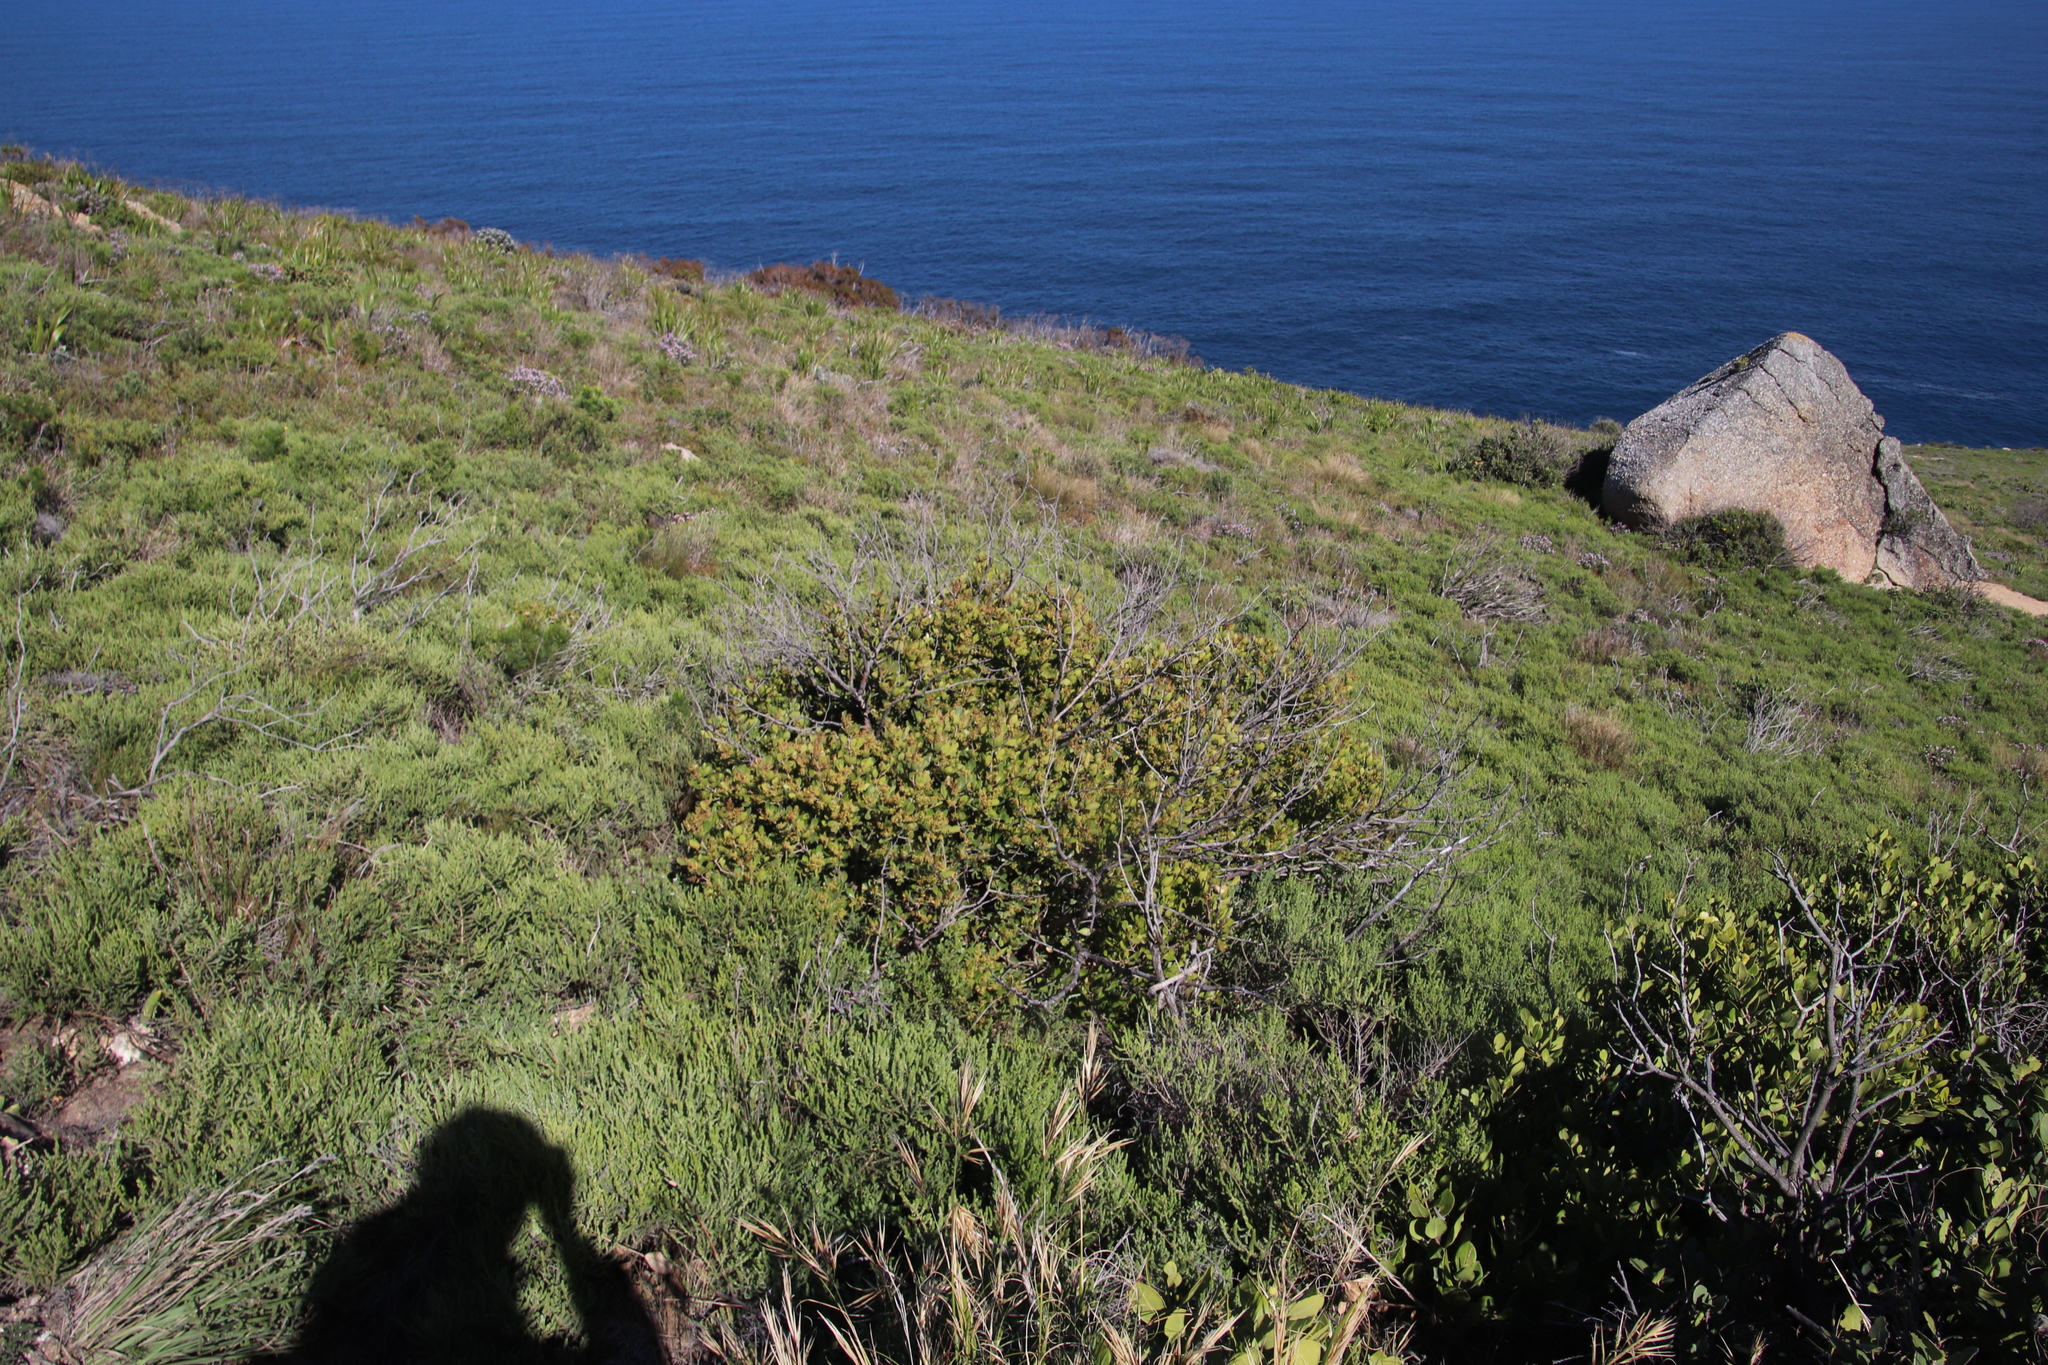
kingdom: Plantae
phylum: Tracheophyta
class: Magnoliopsida
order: Sapindales
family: Anacardiaceae
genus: Searsia
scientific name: Searsia lucida
